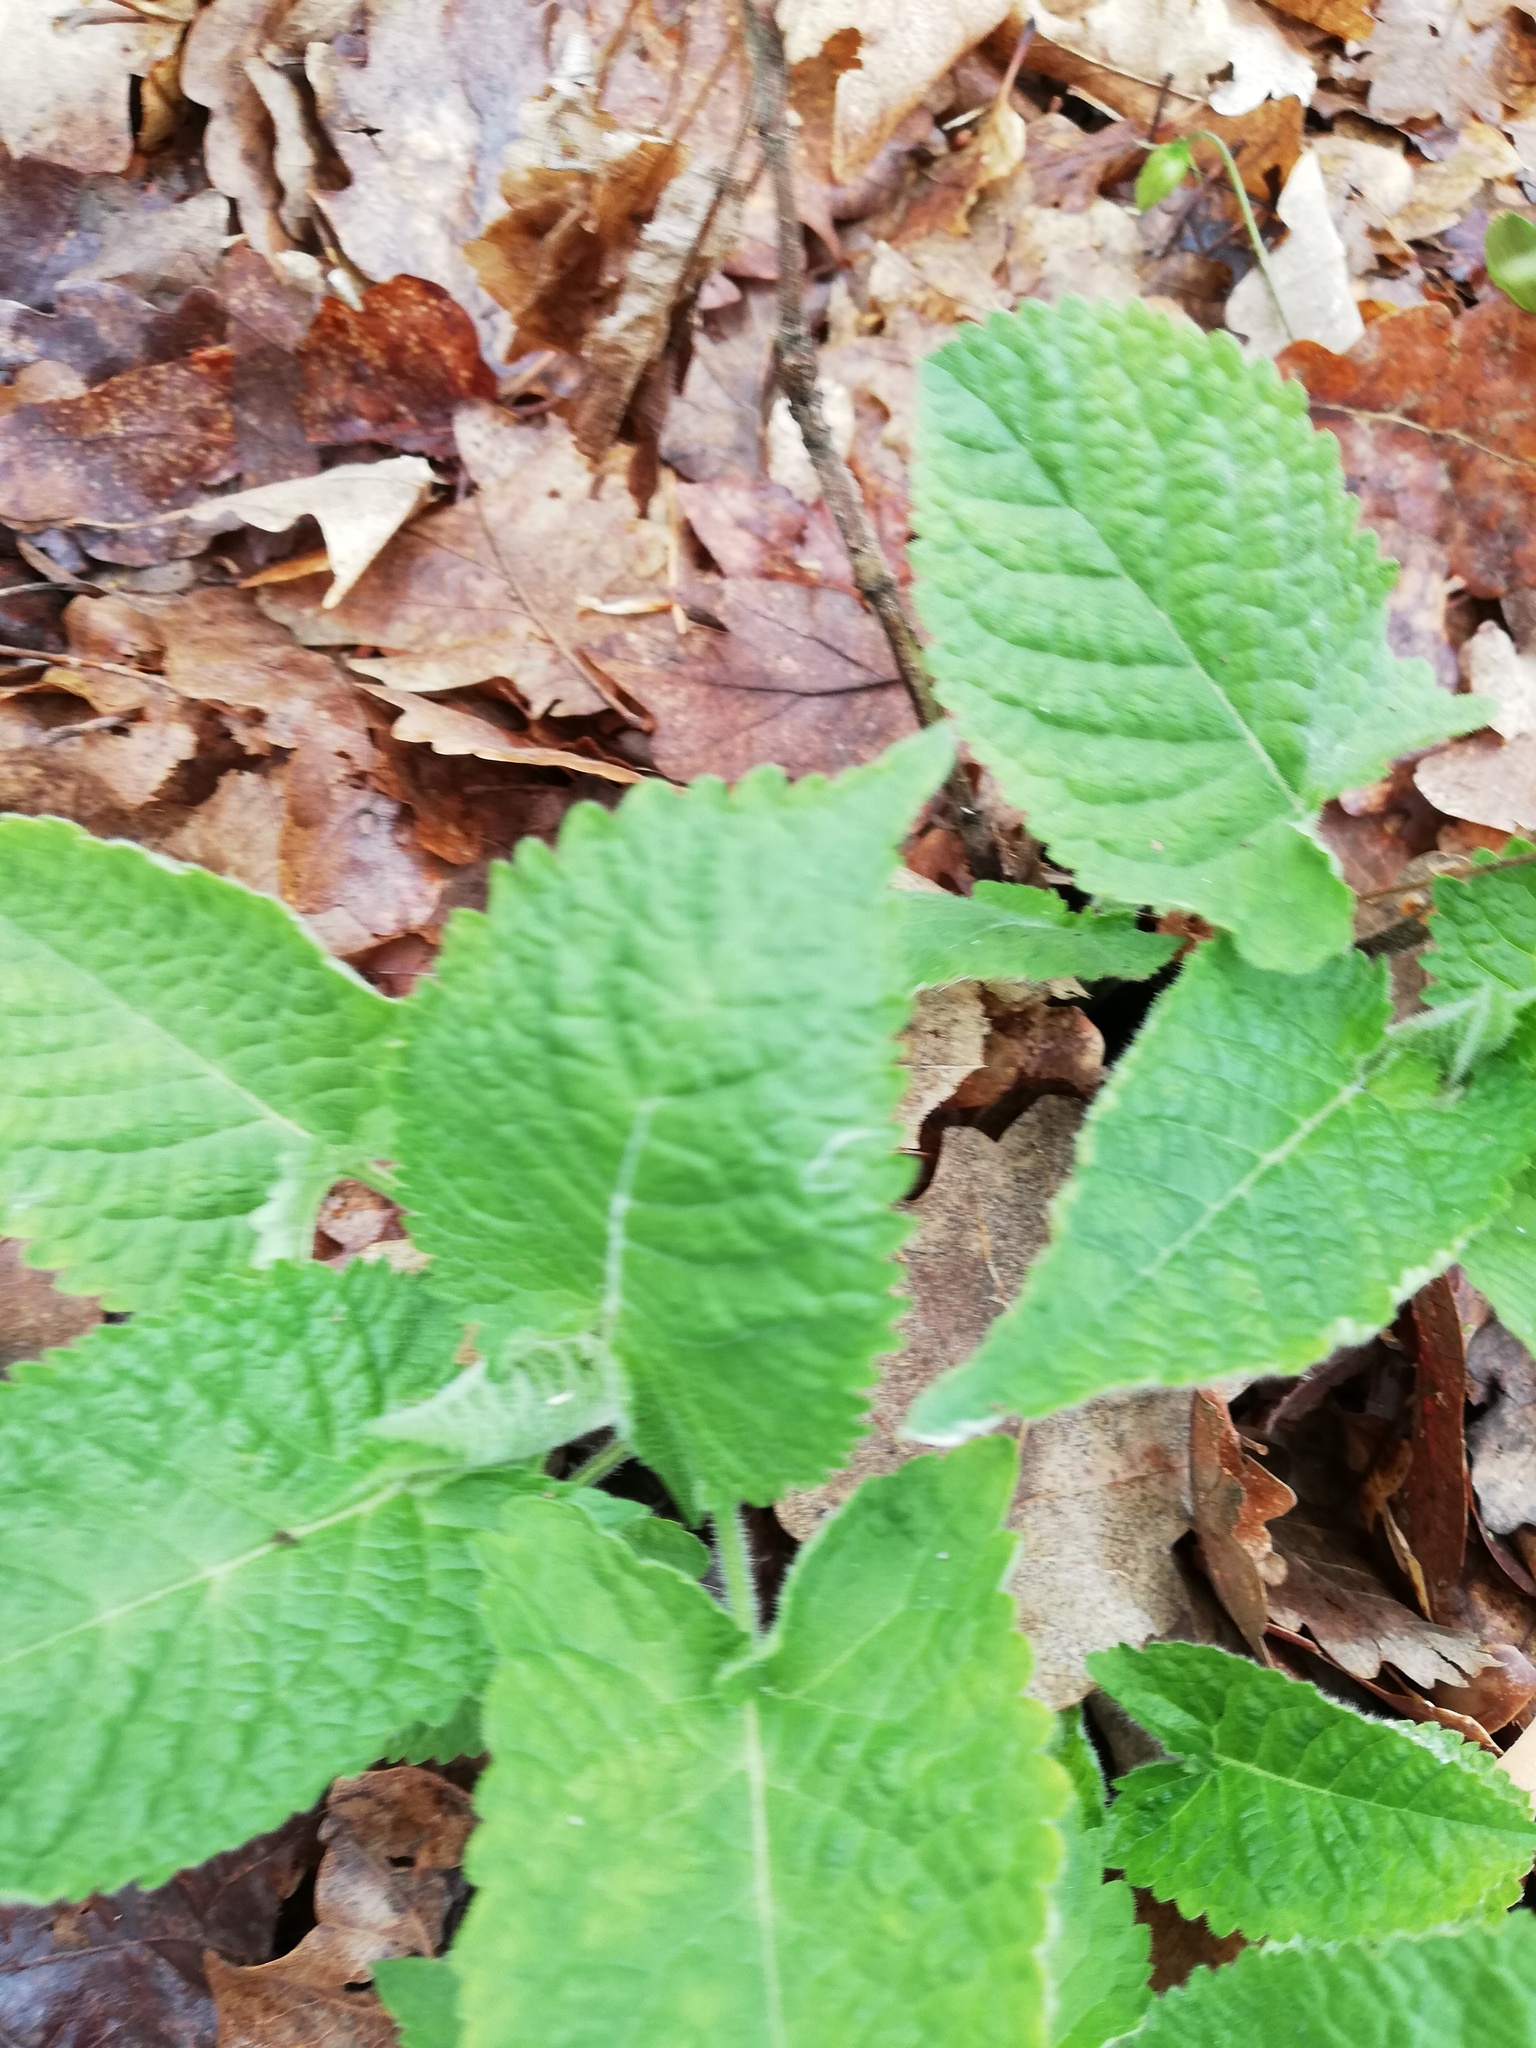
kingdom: Plantae
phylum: Tracheophyta
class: Magnoliopsida
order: Lamiales
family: Lamiaceae
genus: Salvia
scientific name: Salvia glutinosa
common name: Sticky clary
